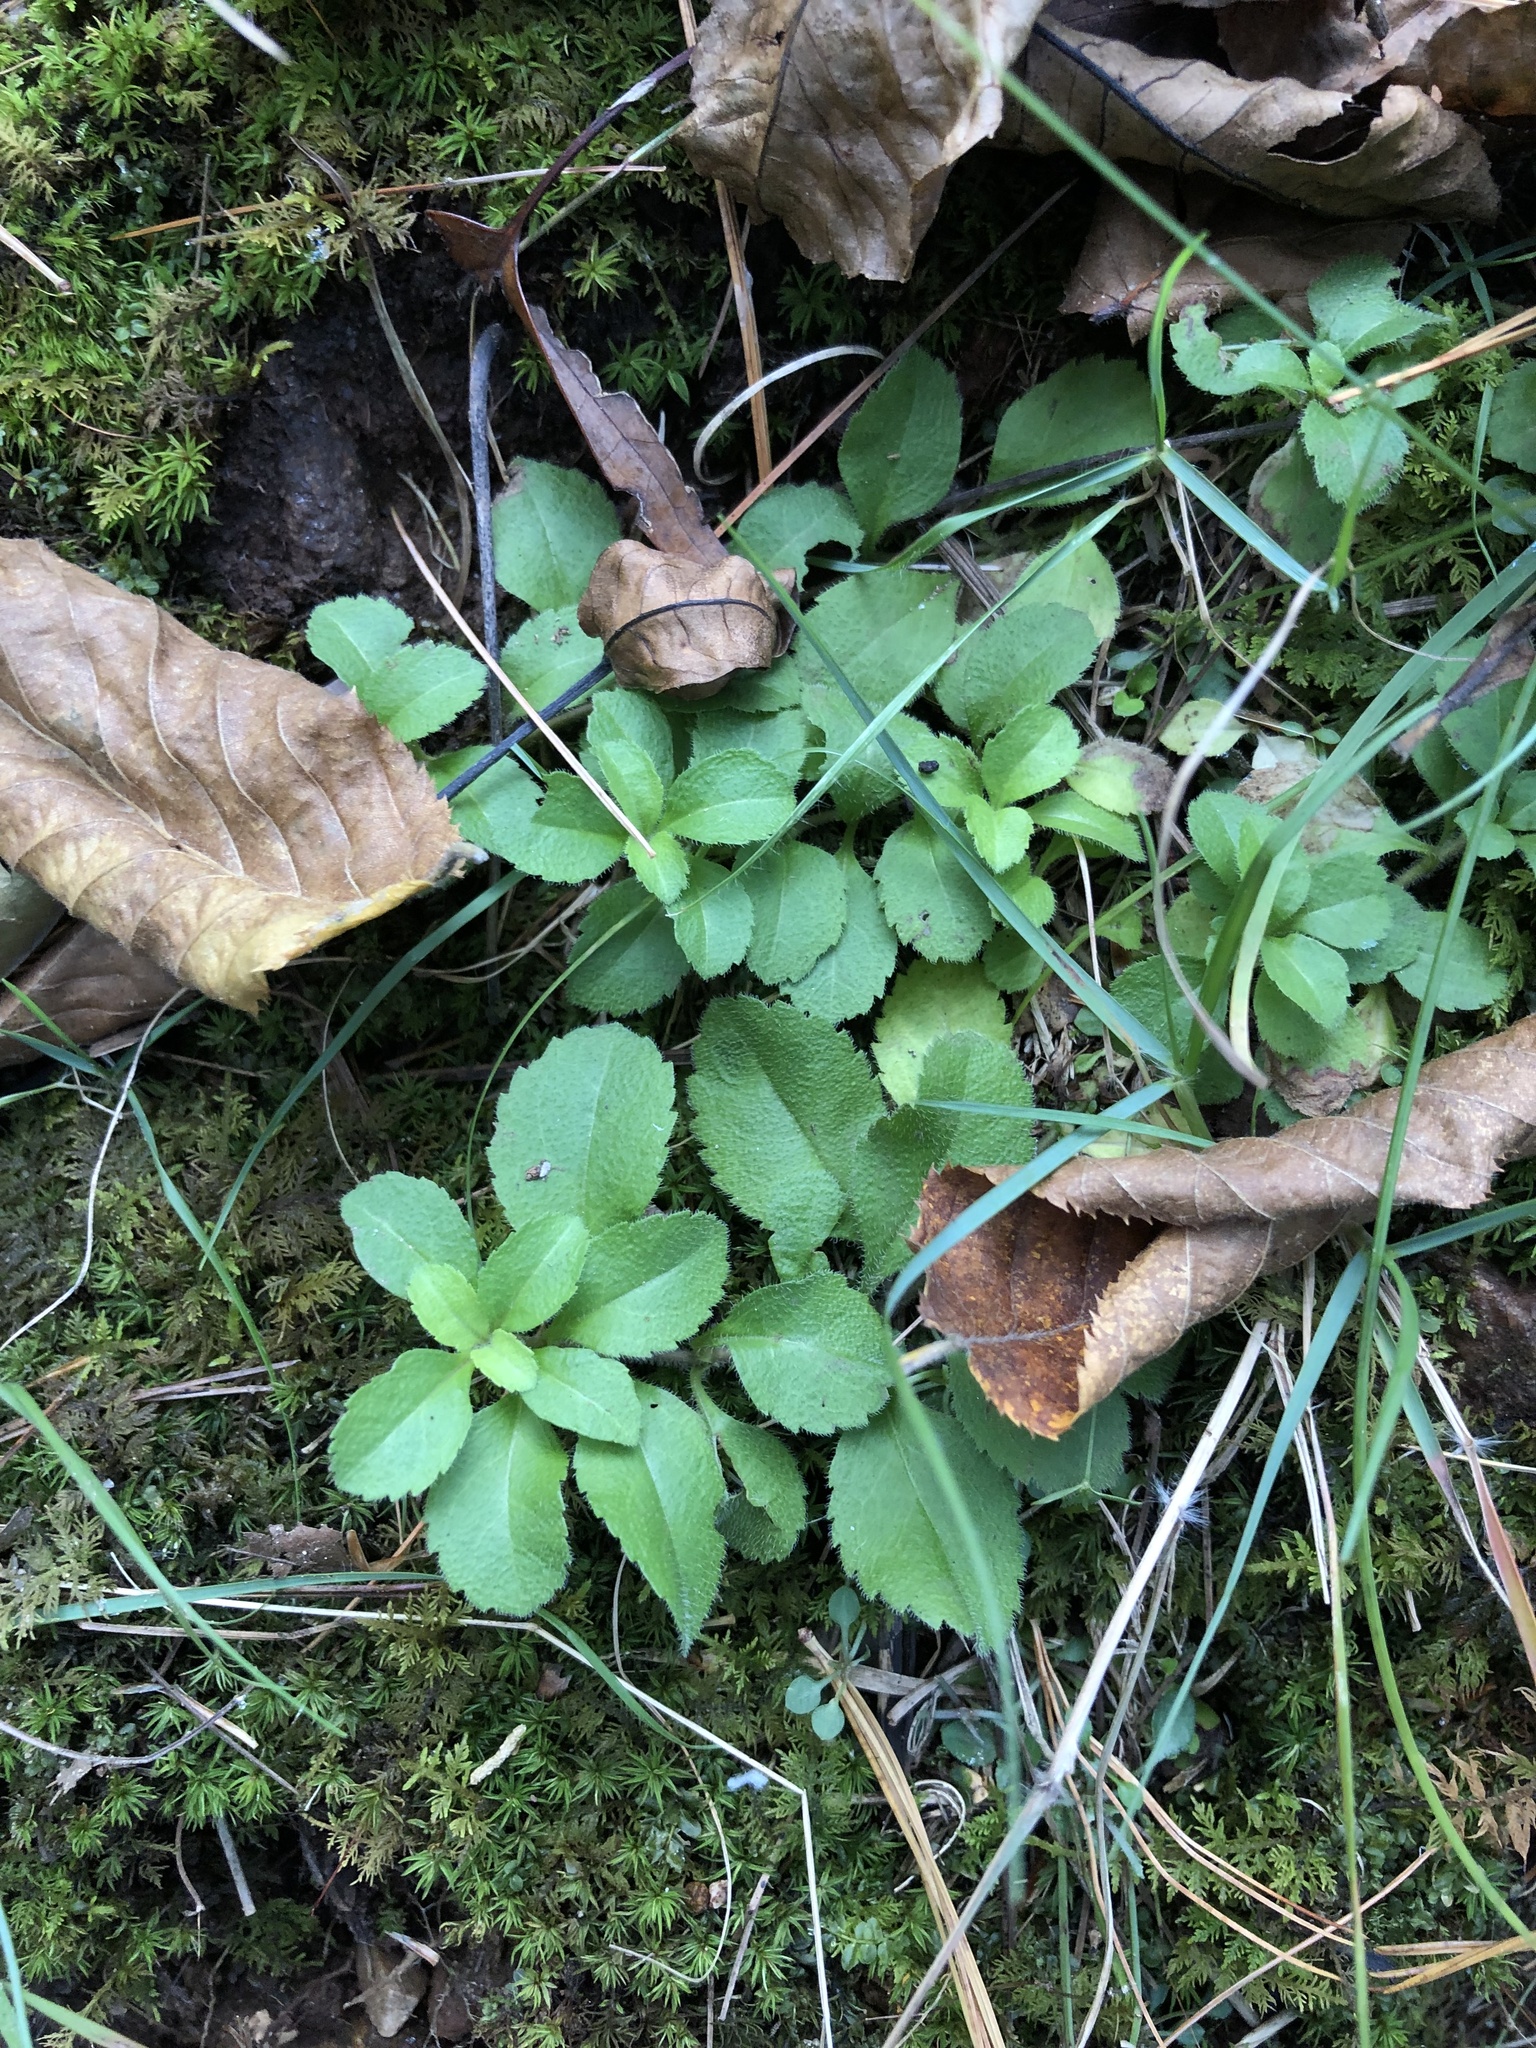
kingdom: Plantae
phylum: Tracheophyta
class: Magnoliopsida
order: Lamiales
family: Plantaginaceae
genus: Veronica
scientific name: Veronica officinalis
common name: Common speedwell
